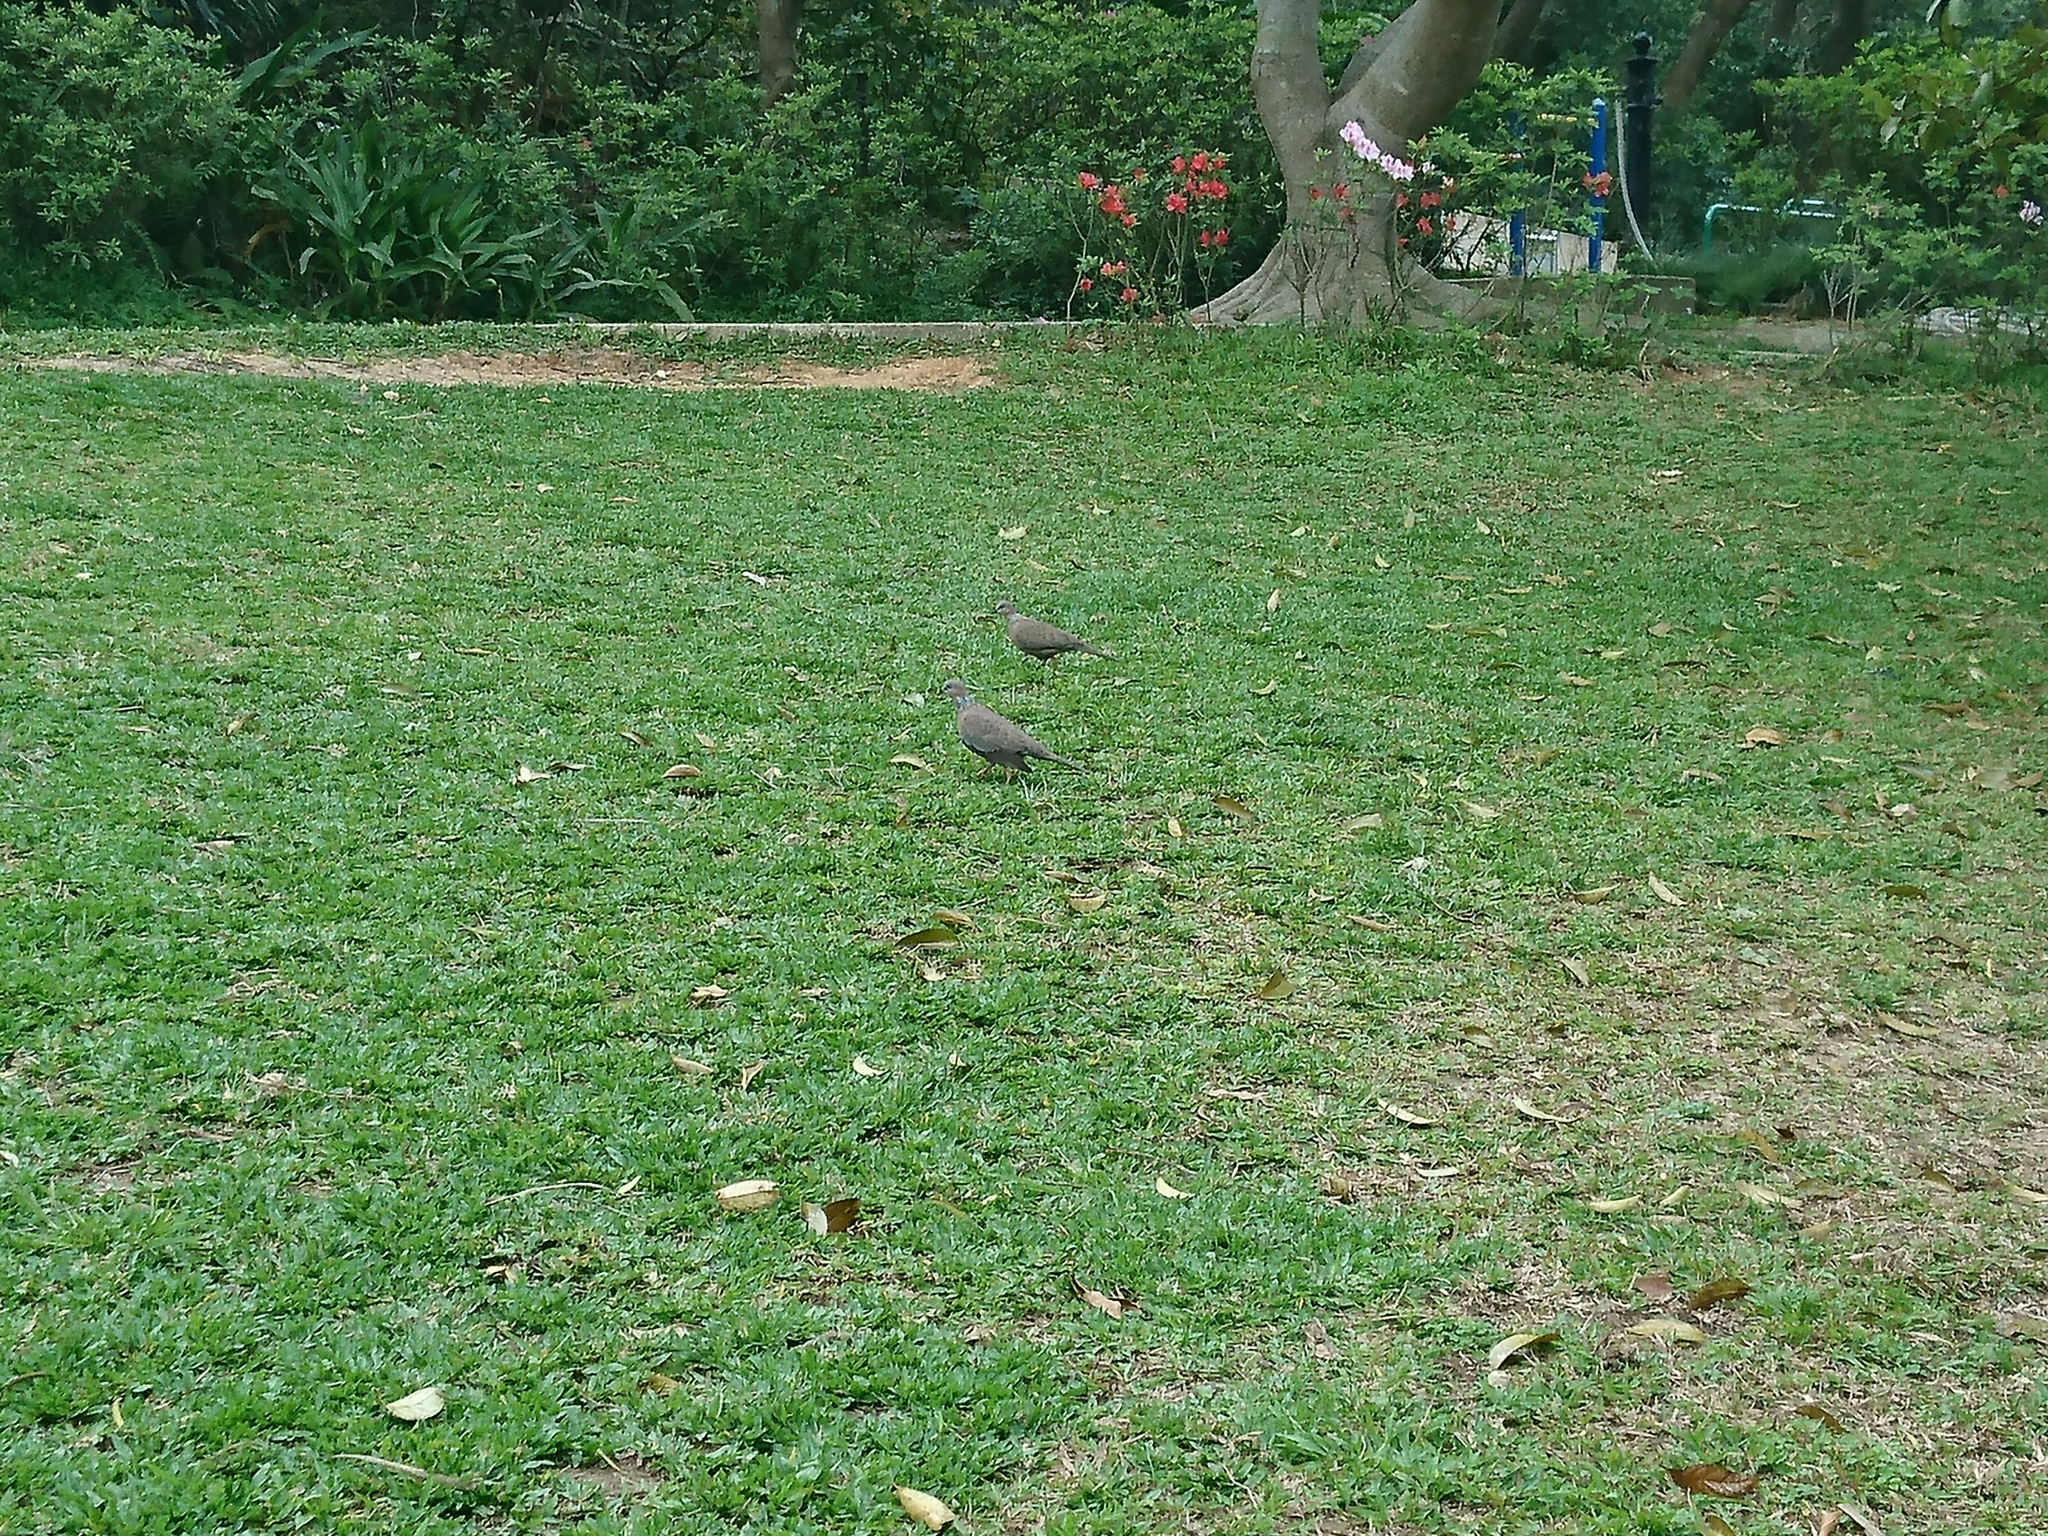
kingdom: Animalia
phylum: Chordata
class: Aves
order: Columbiformes
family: Columbidae
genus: Spilopelia
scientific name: Spilopelia chinensis
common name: Spotted dove
